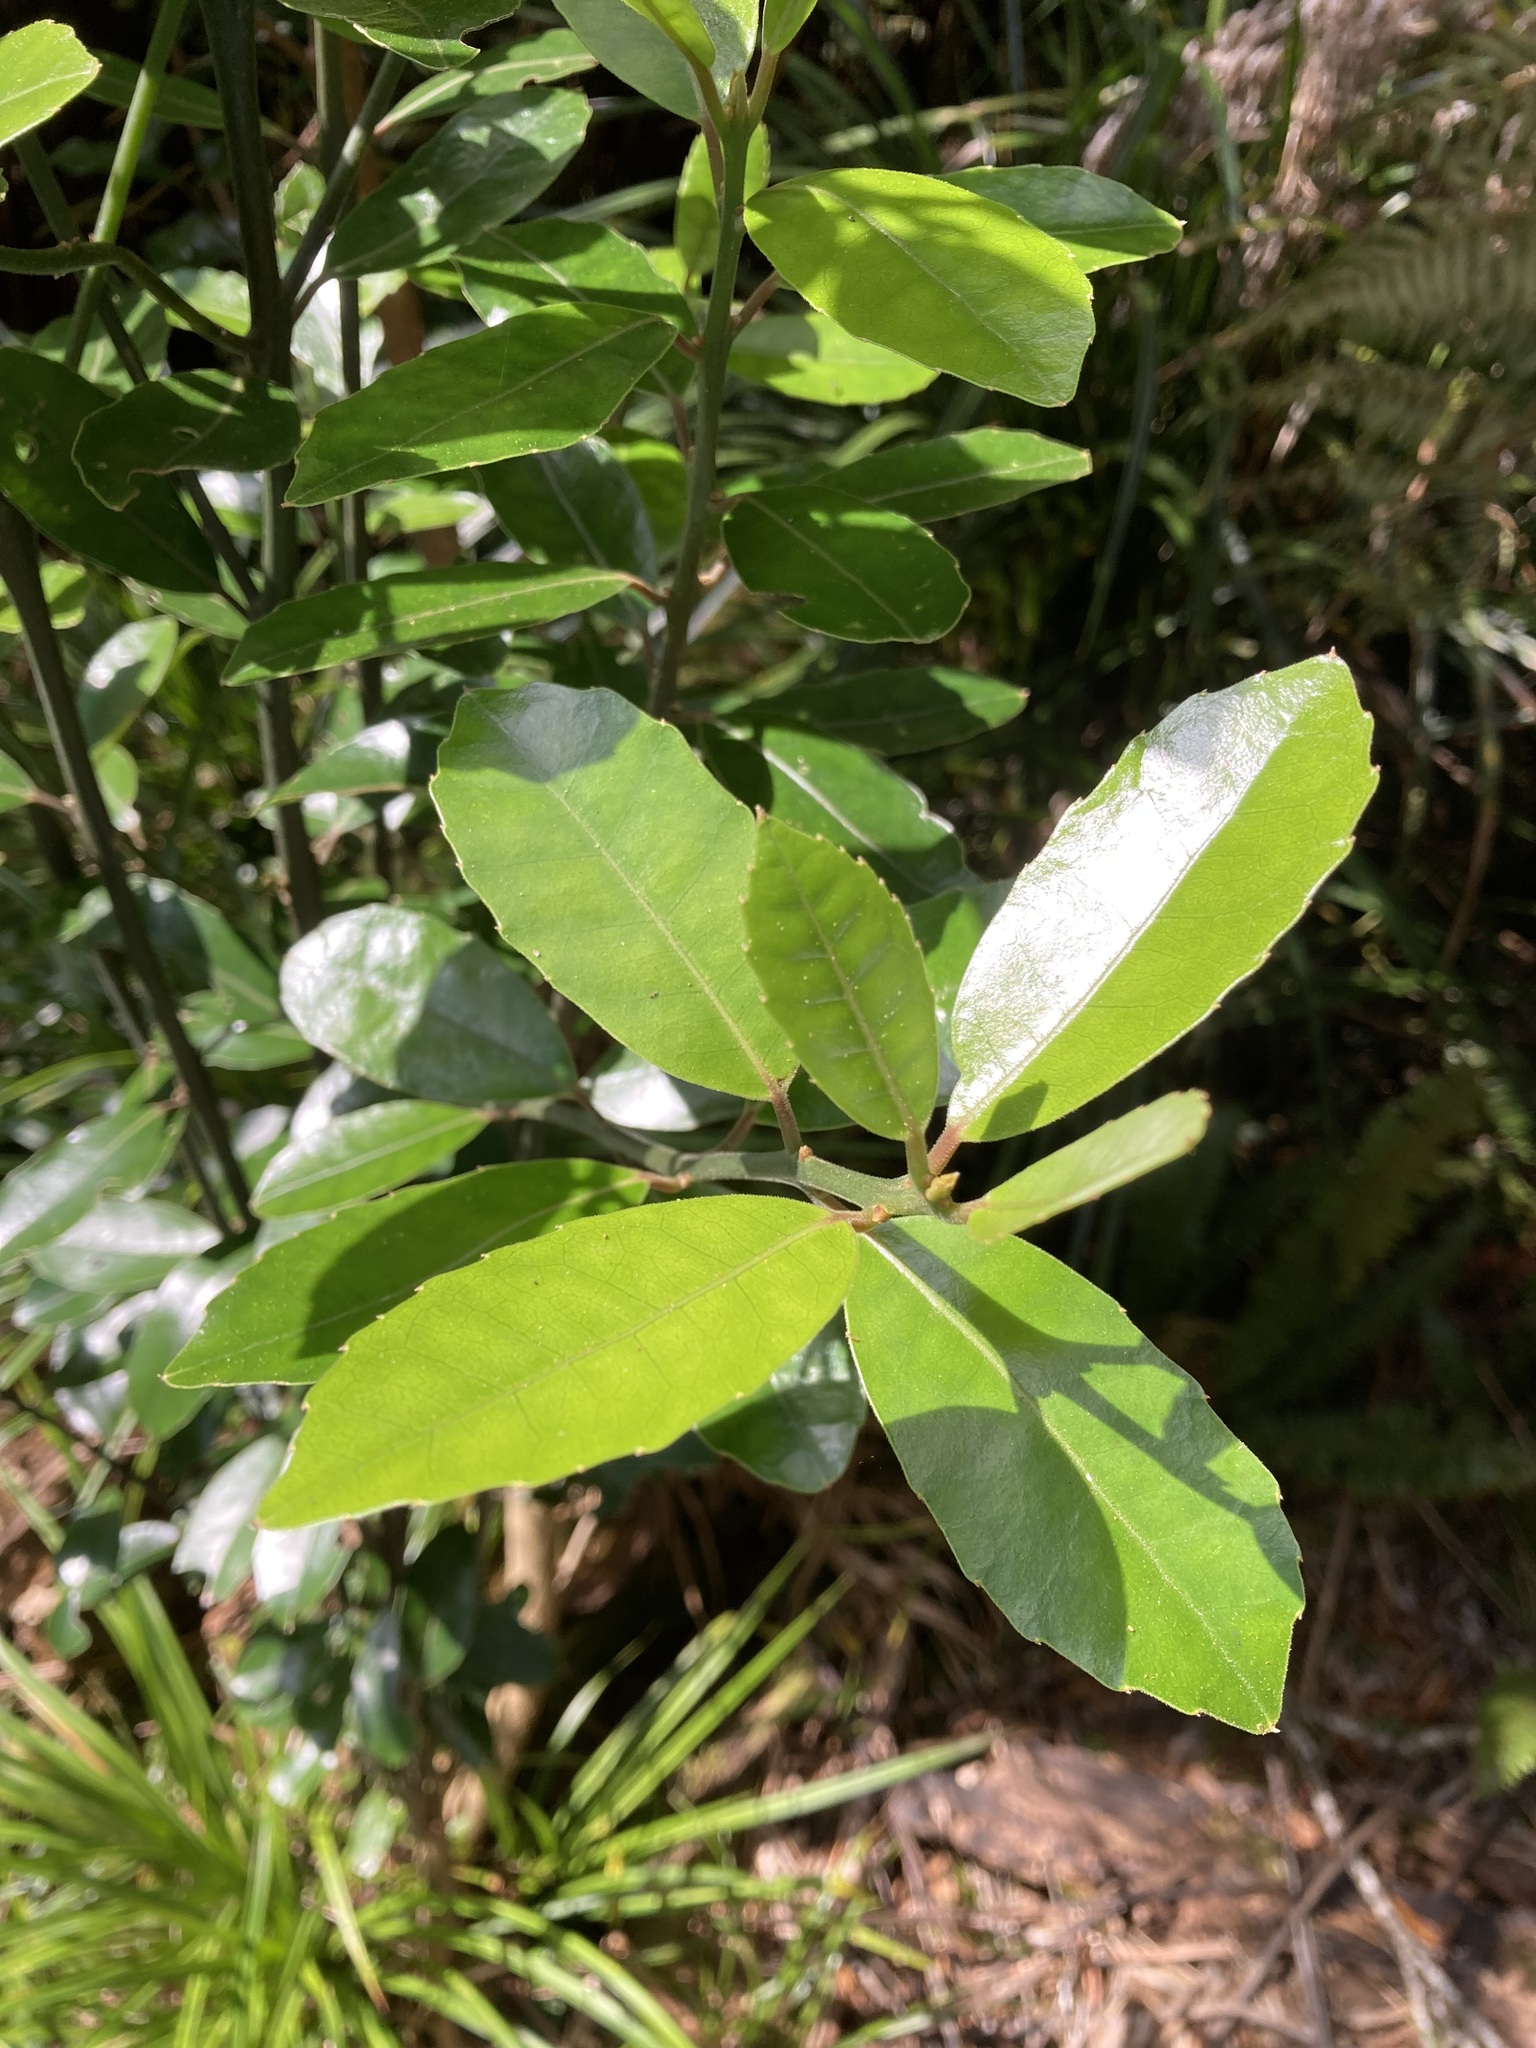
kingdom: Plantae
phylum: Tracheophyta
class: Magnoliopsida
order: Laurales
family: Monimiaceae
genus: Hedycarya
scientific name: Hedycarya arborea
